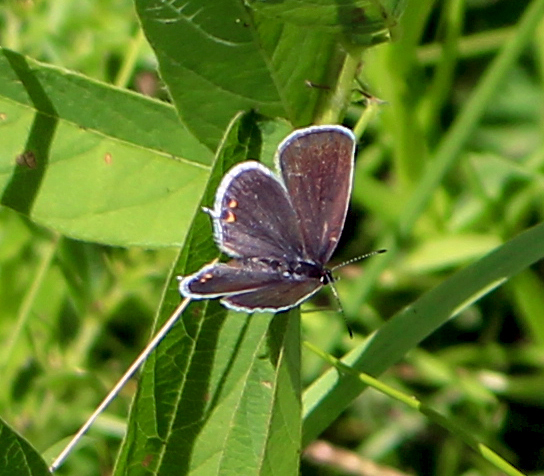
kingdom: Animalia
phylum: Arthropoda
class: Insecta
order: Lepidoptera
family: Lycaenidae
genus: Elkalyce
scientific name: Elkalyce comyntas
